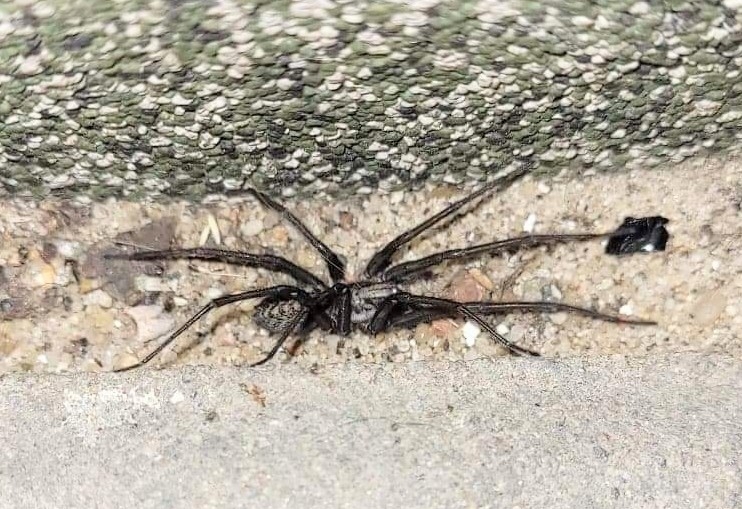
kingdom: Animalia
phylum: Arthropoda
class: Arachnida
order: Araneae
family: Agelenidae
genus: Eratigena
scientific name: Eratigena atrica
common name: Giant house spider
